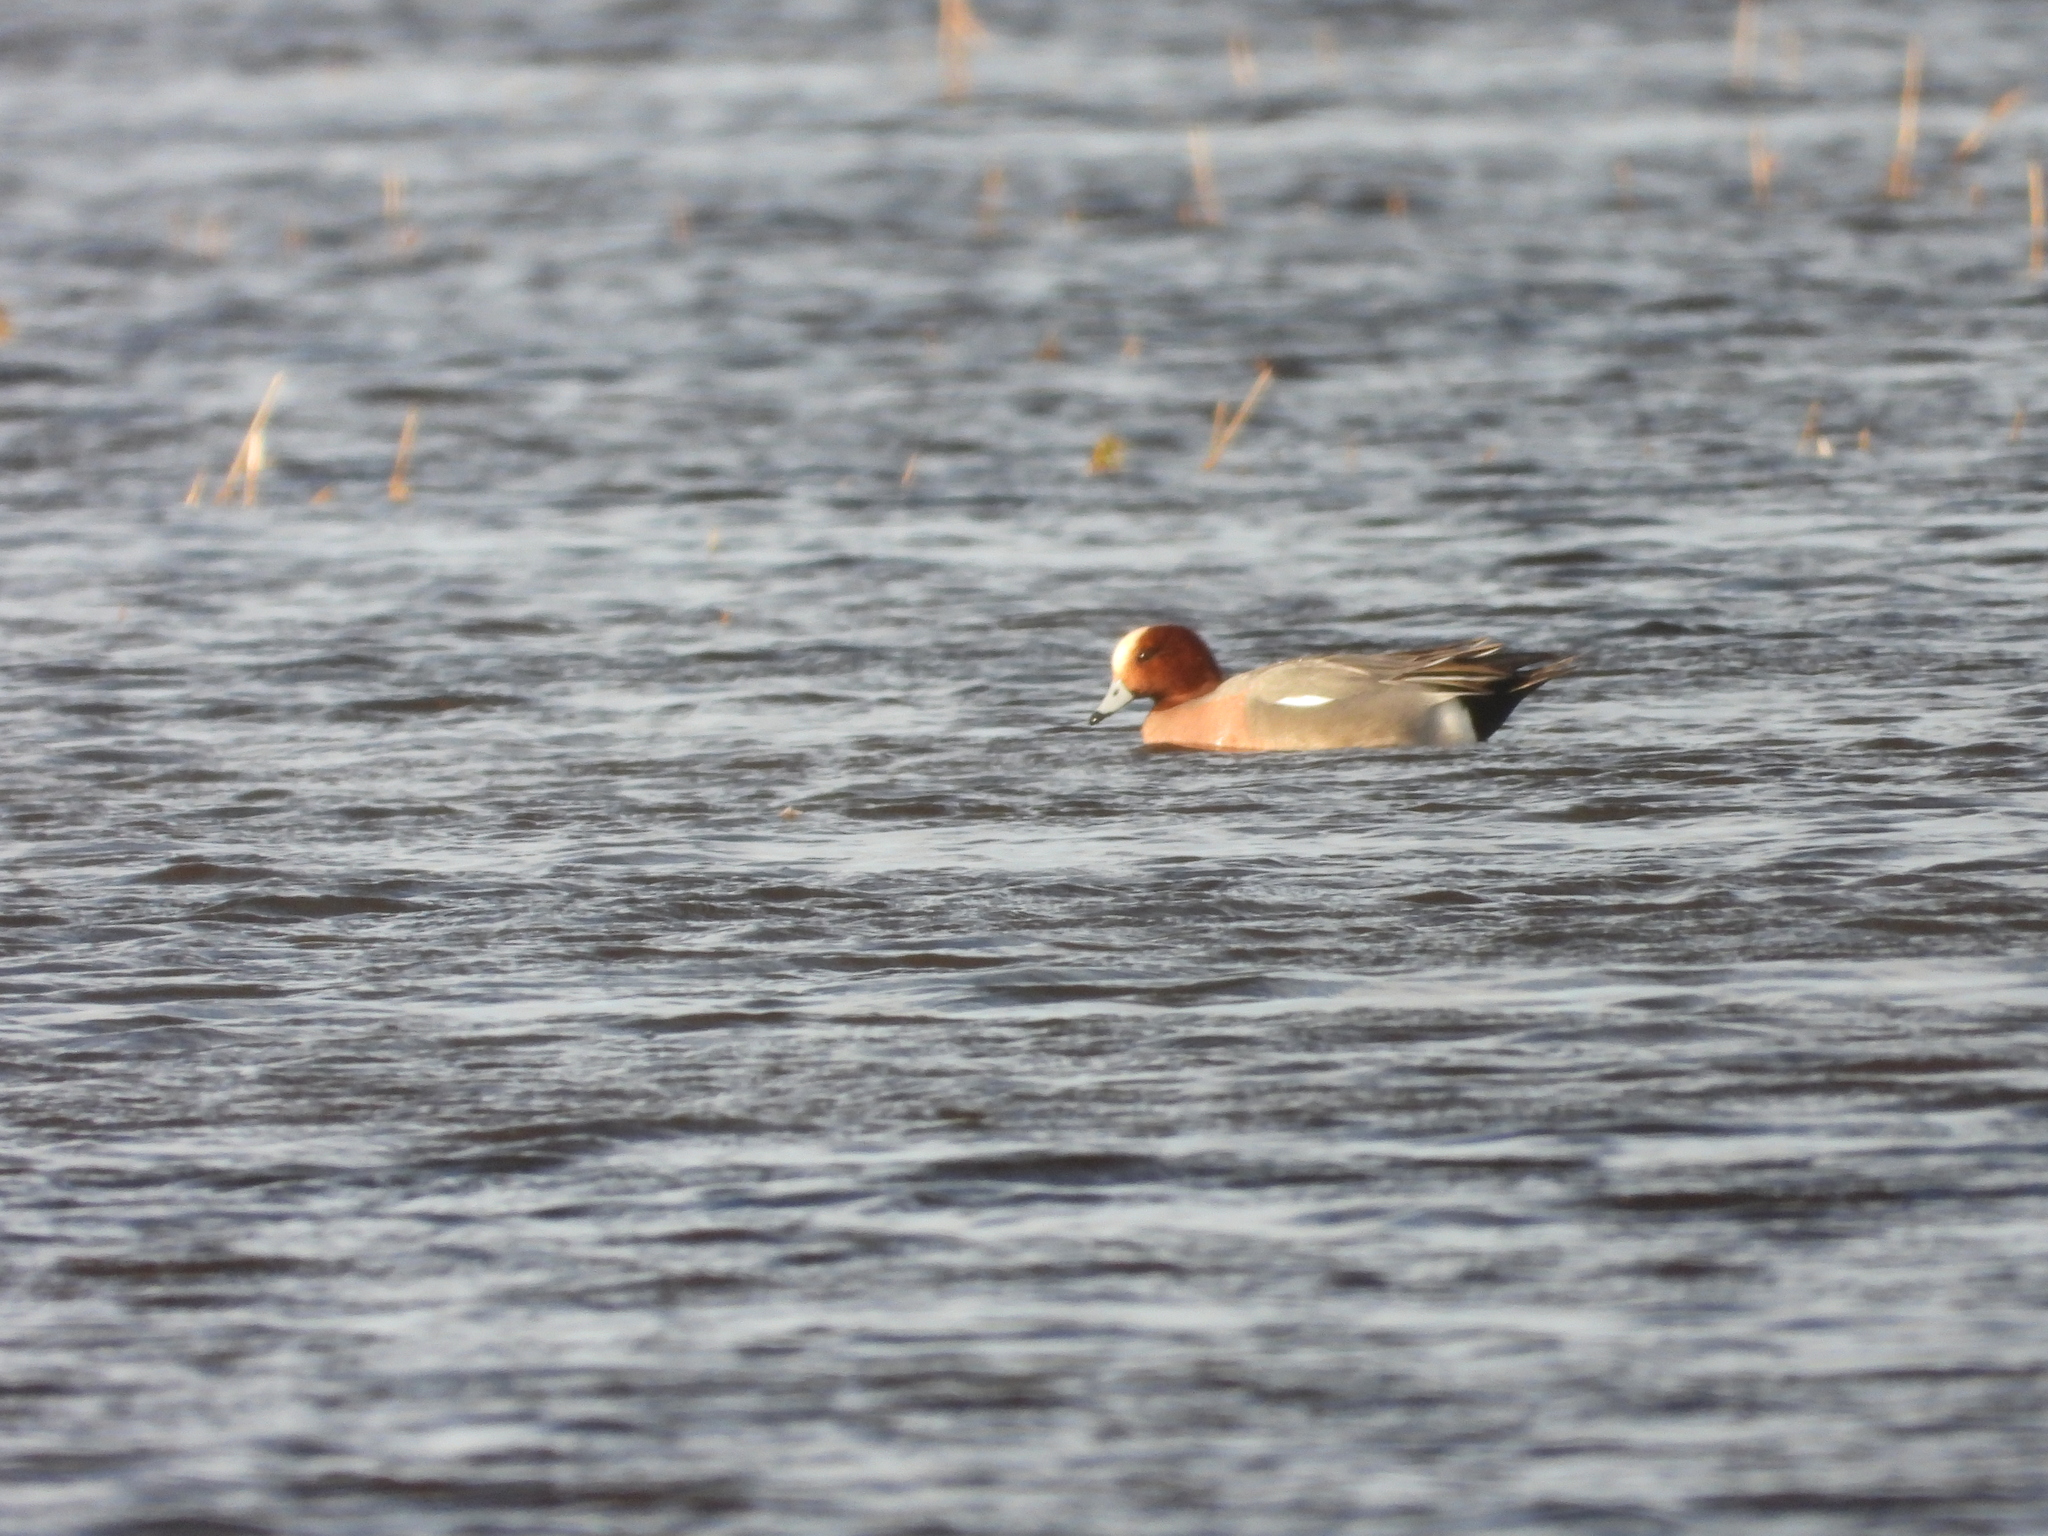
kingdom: Animalia
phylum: Chordata
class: Aves
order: Anseriformes
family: Anatidae
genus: Mareca
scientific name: Mareca penelope
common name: Eurasian wigeon
